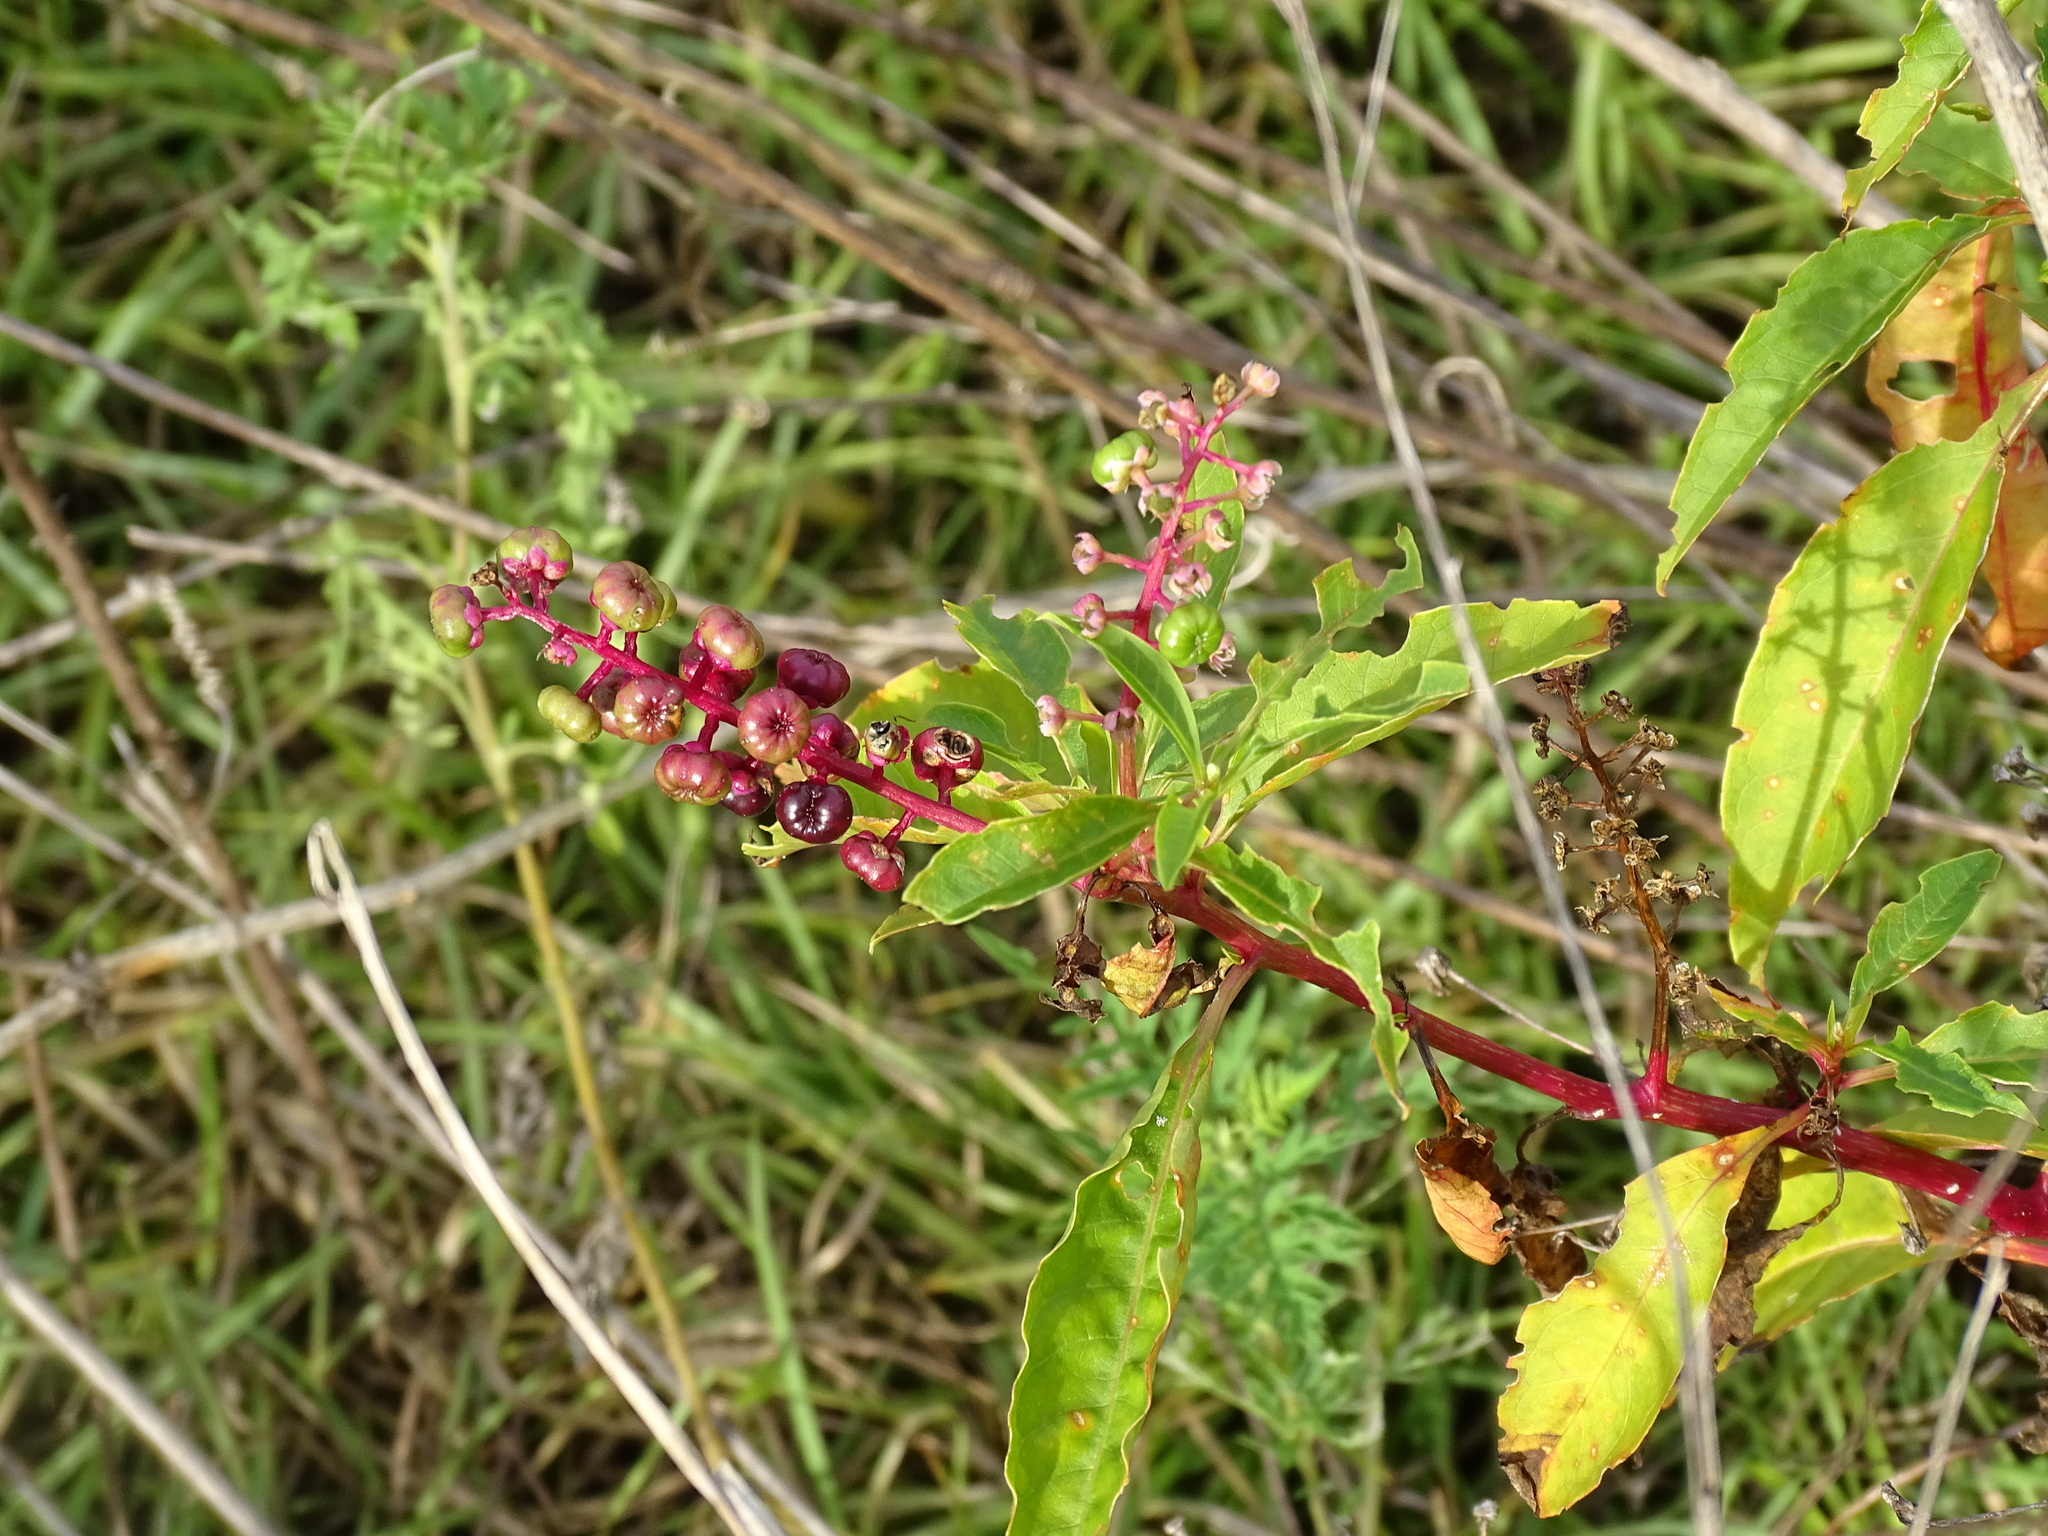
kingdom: Plantae
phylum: Tracheophyta
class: Magnoliopsida
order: Caryophyllales
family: Phytolaccaceae
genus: Phytolacca
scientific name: Phytolacca americana
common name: American pokeweed
